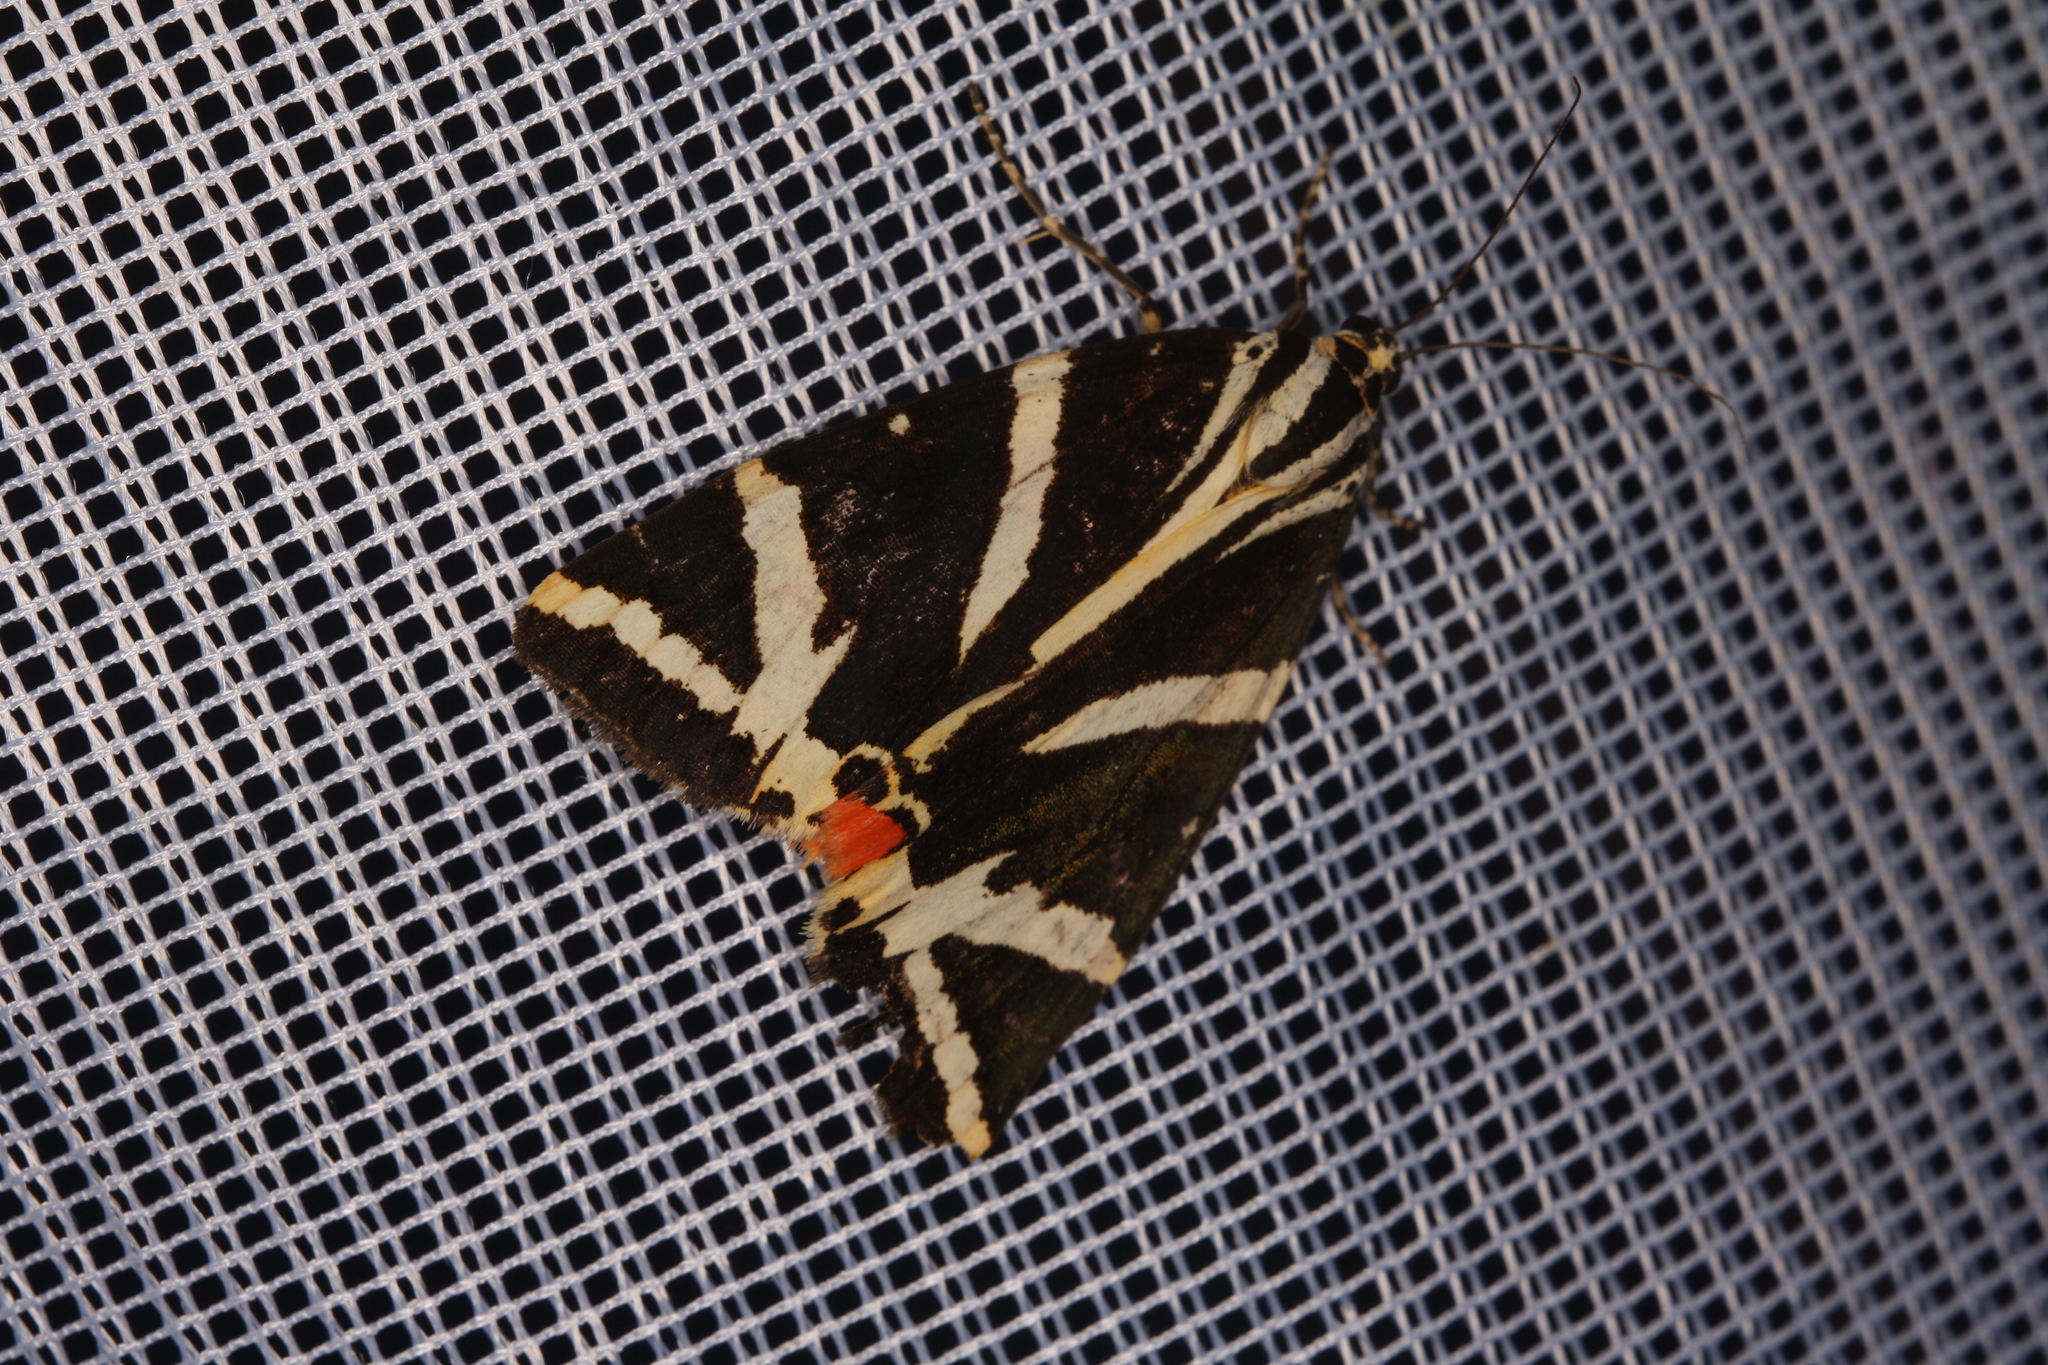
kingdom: Animalia
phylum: Arthropoda
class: Insecta
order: Lepidoptera
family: Erebidae
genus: Euplagia
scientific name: Euplagia quadripunctaria
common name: Jersey tiger
